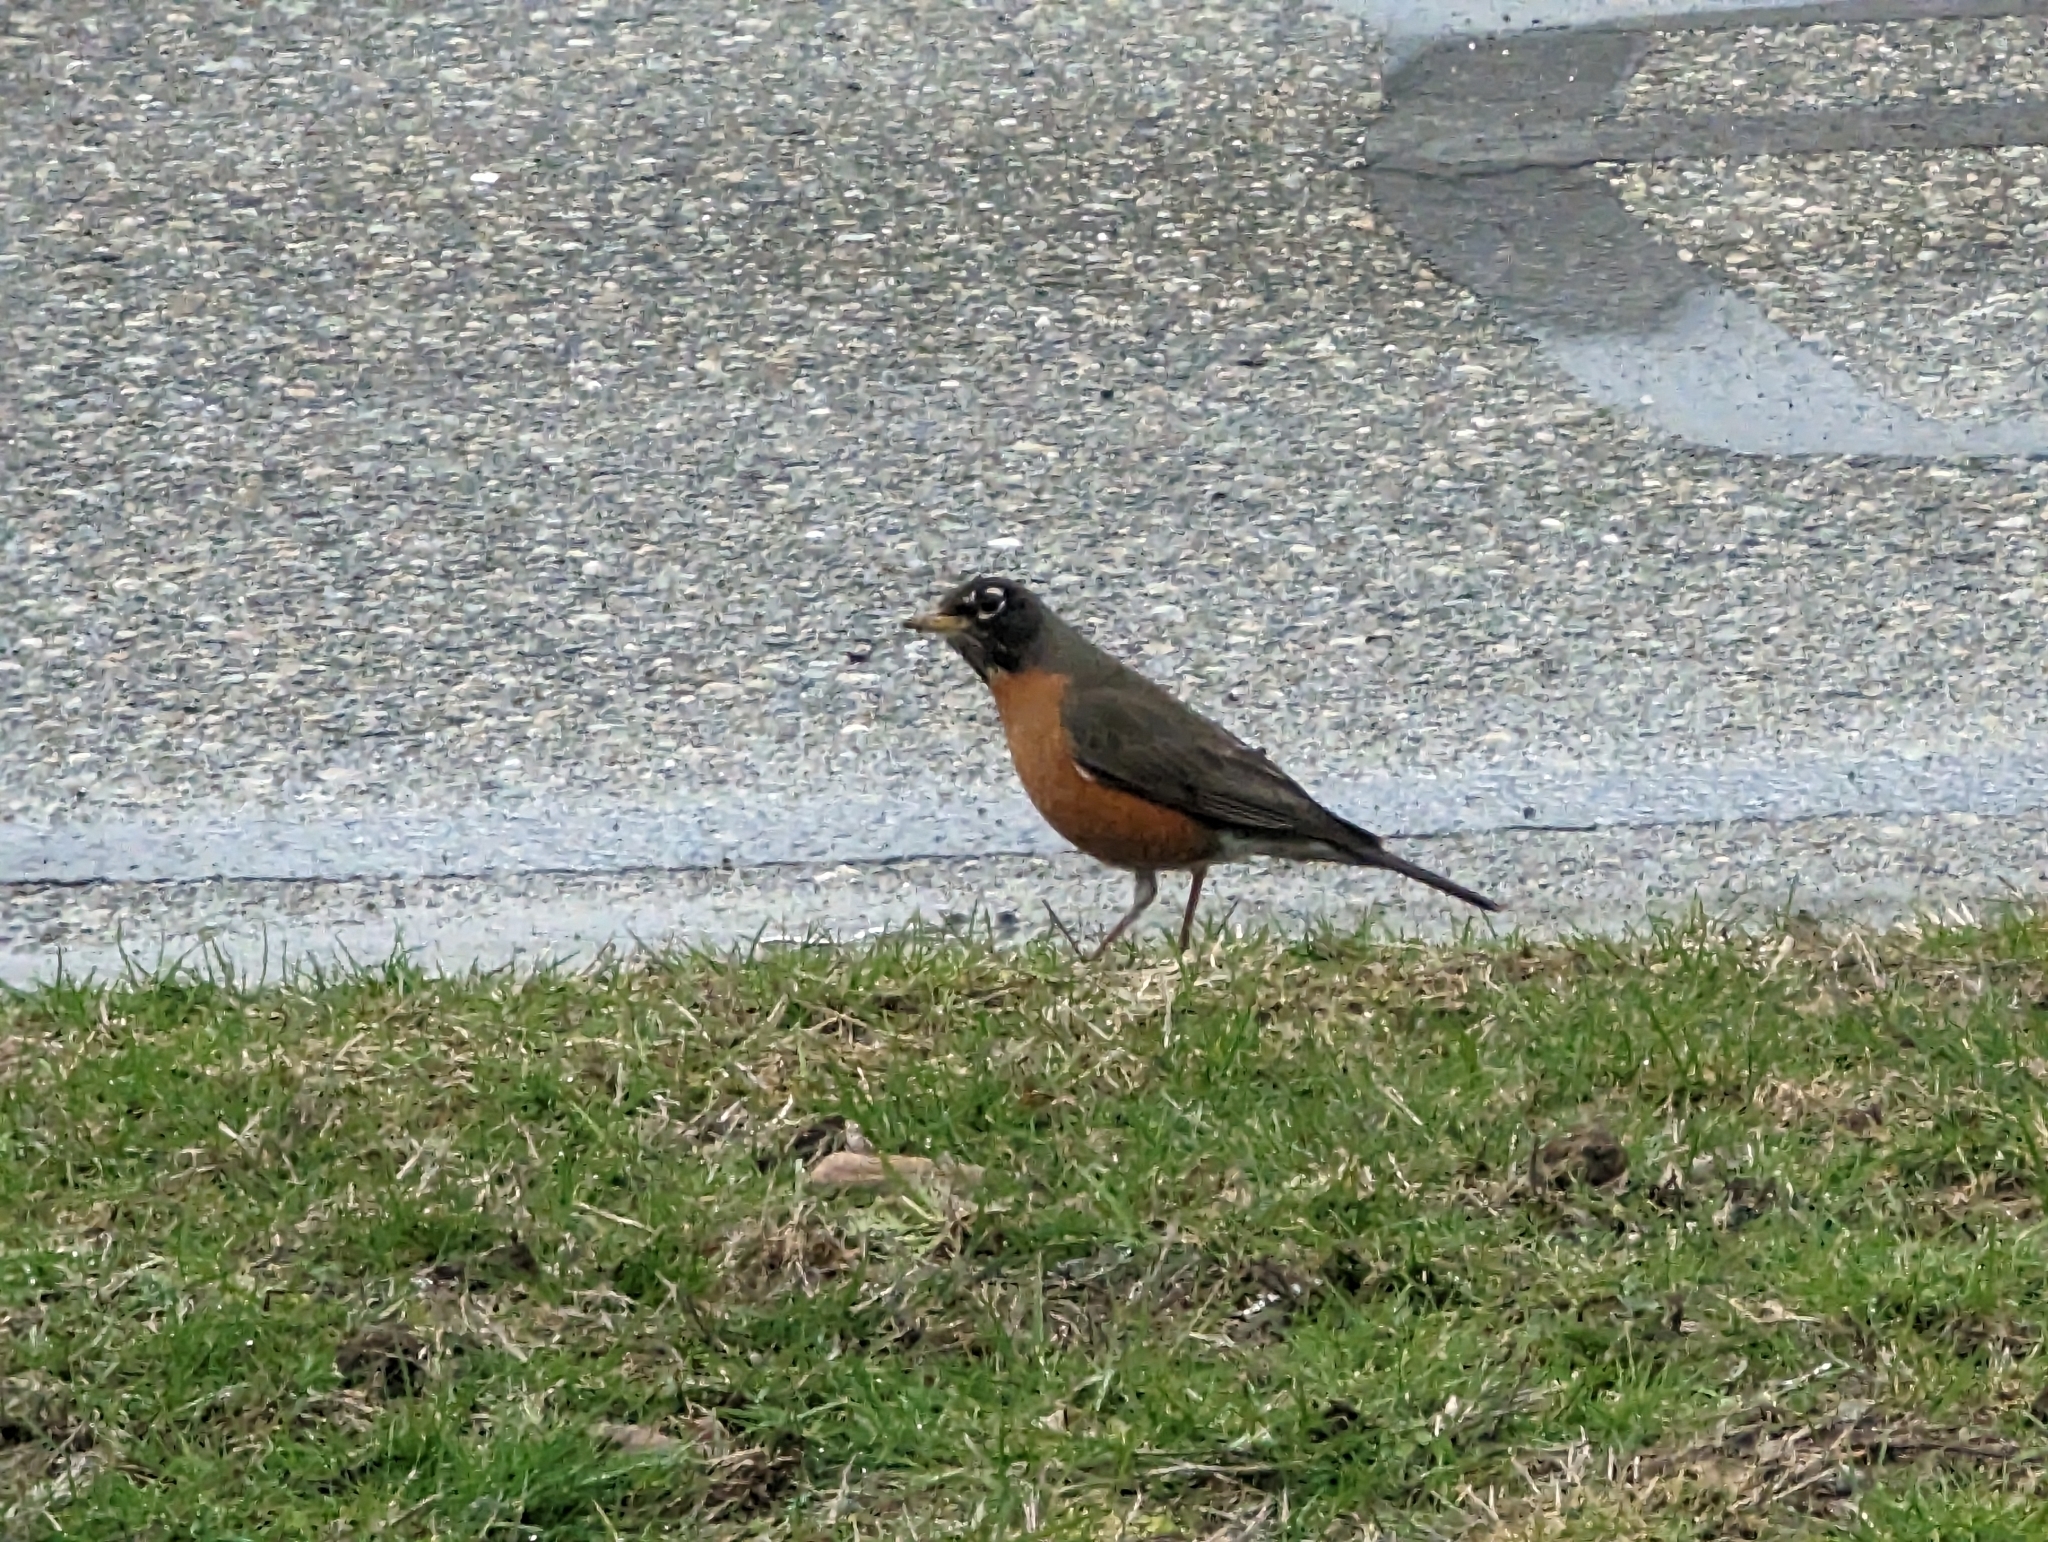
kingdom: Animalia
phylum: Chordata
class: Aves
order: Passeriformes
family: Turdidae
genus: Turdus
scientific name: Turdus migratorius
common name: American robin
